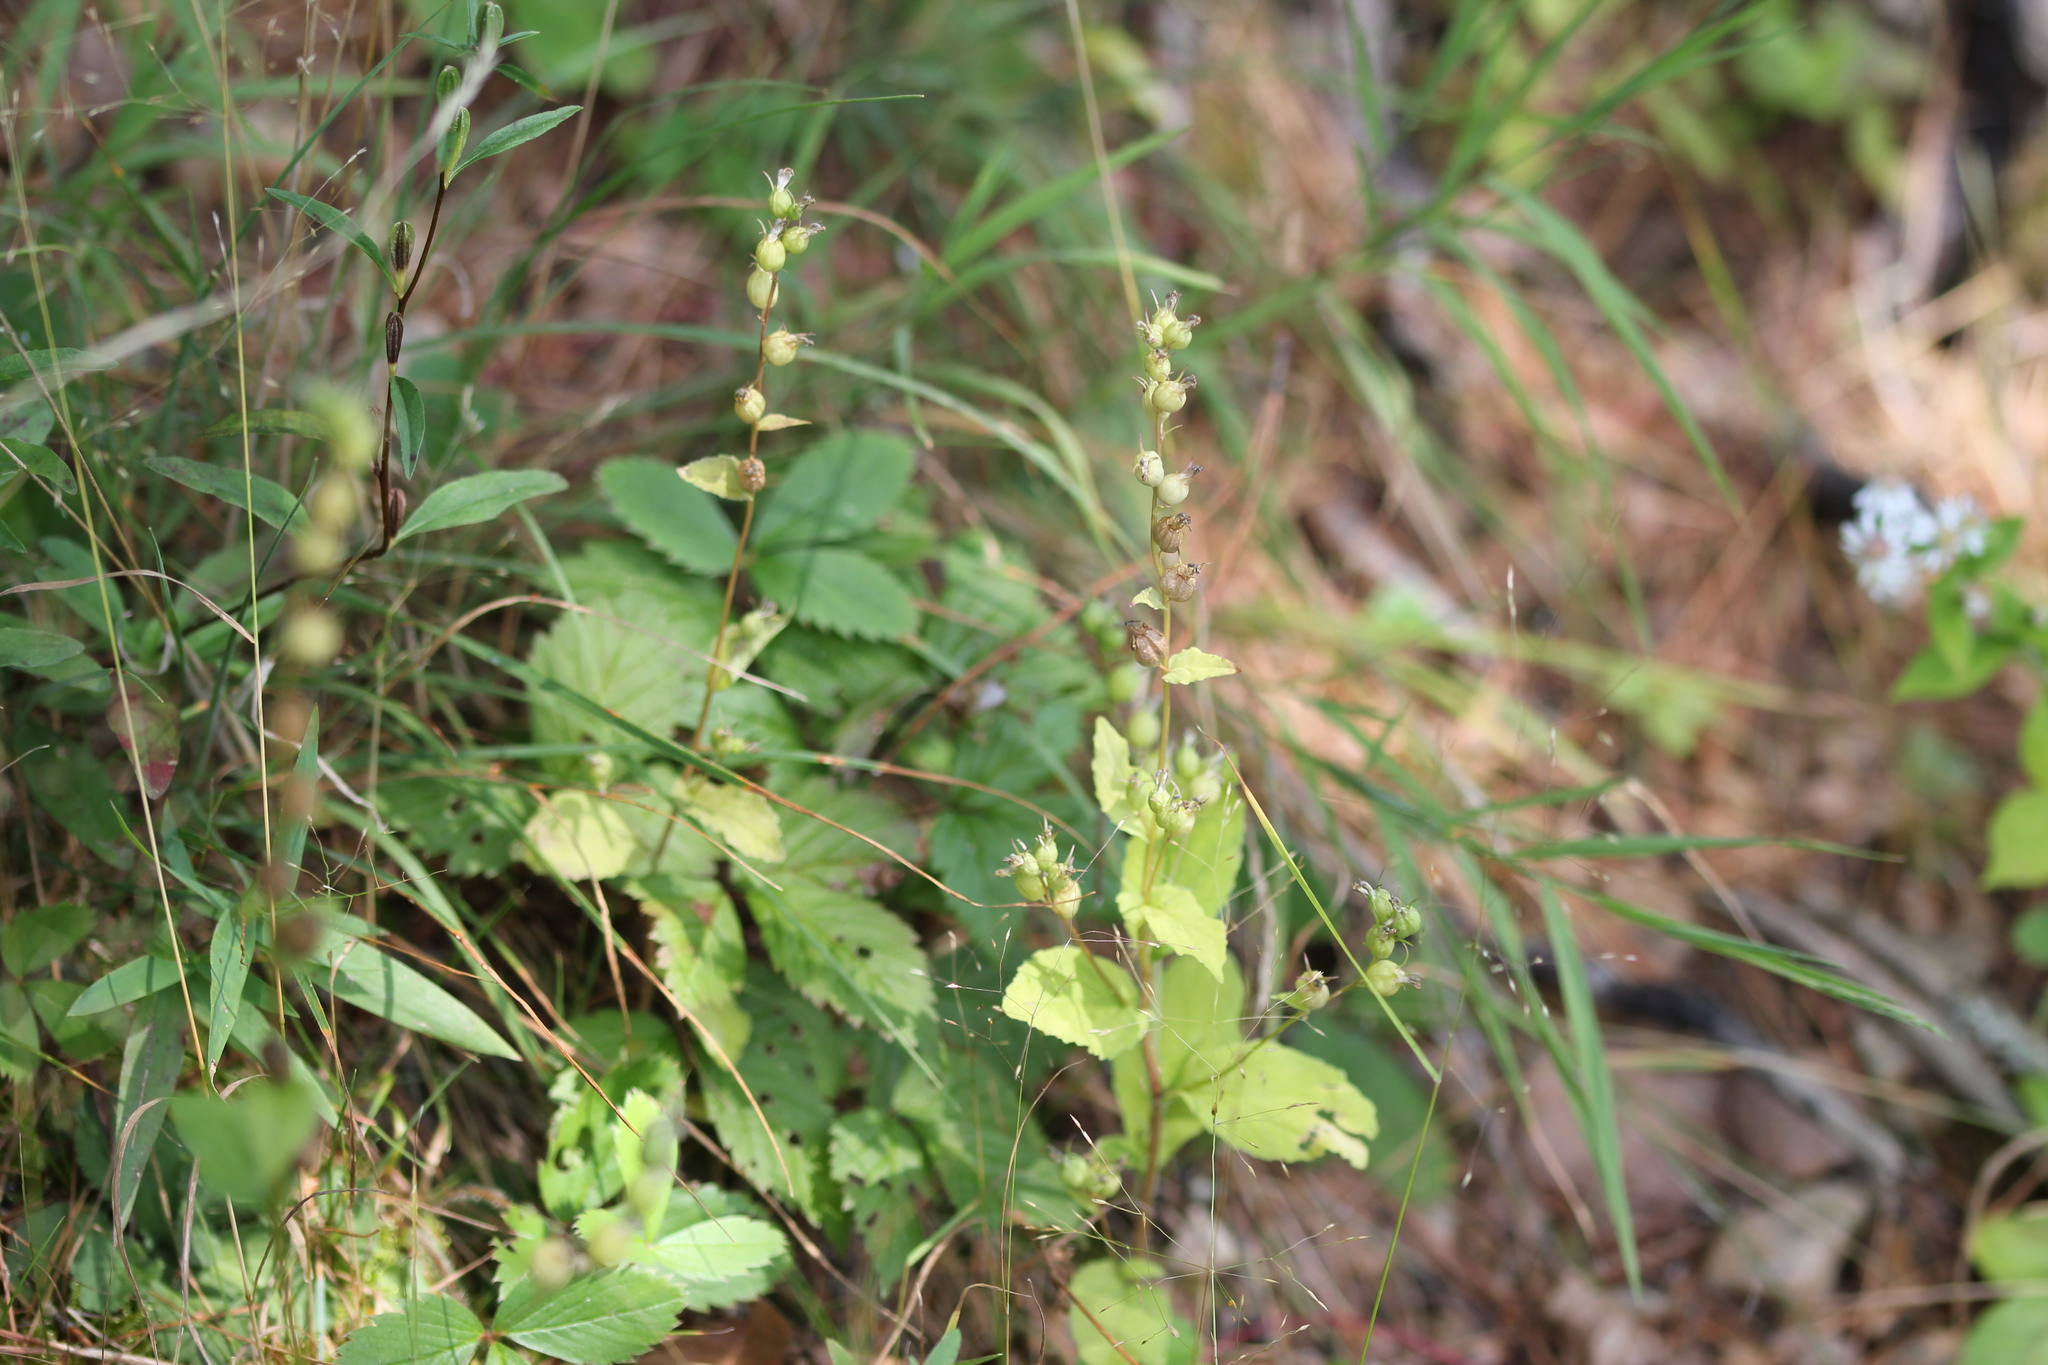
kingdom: Plantae
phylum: Tracheophyta
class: Magnoliopsida
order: Asterales
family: Campanulaceae
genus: Lobelia
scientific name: Lobelia inflata
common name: Indian tobacco
